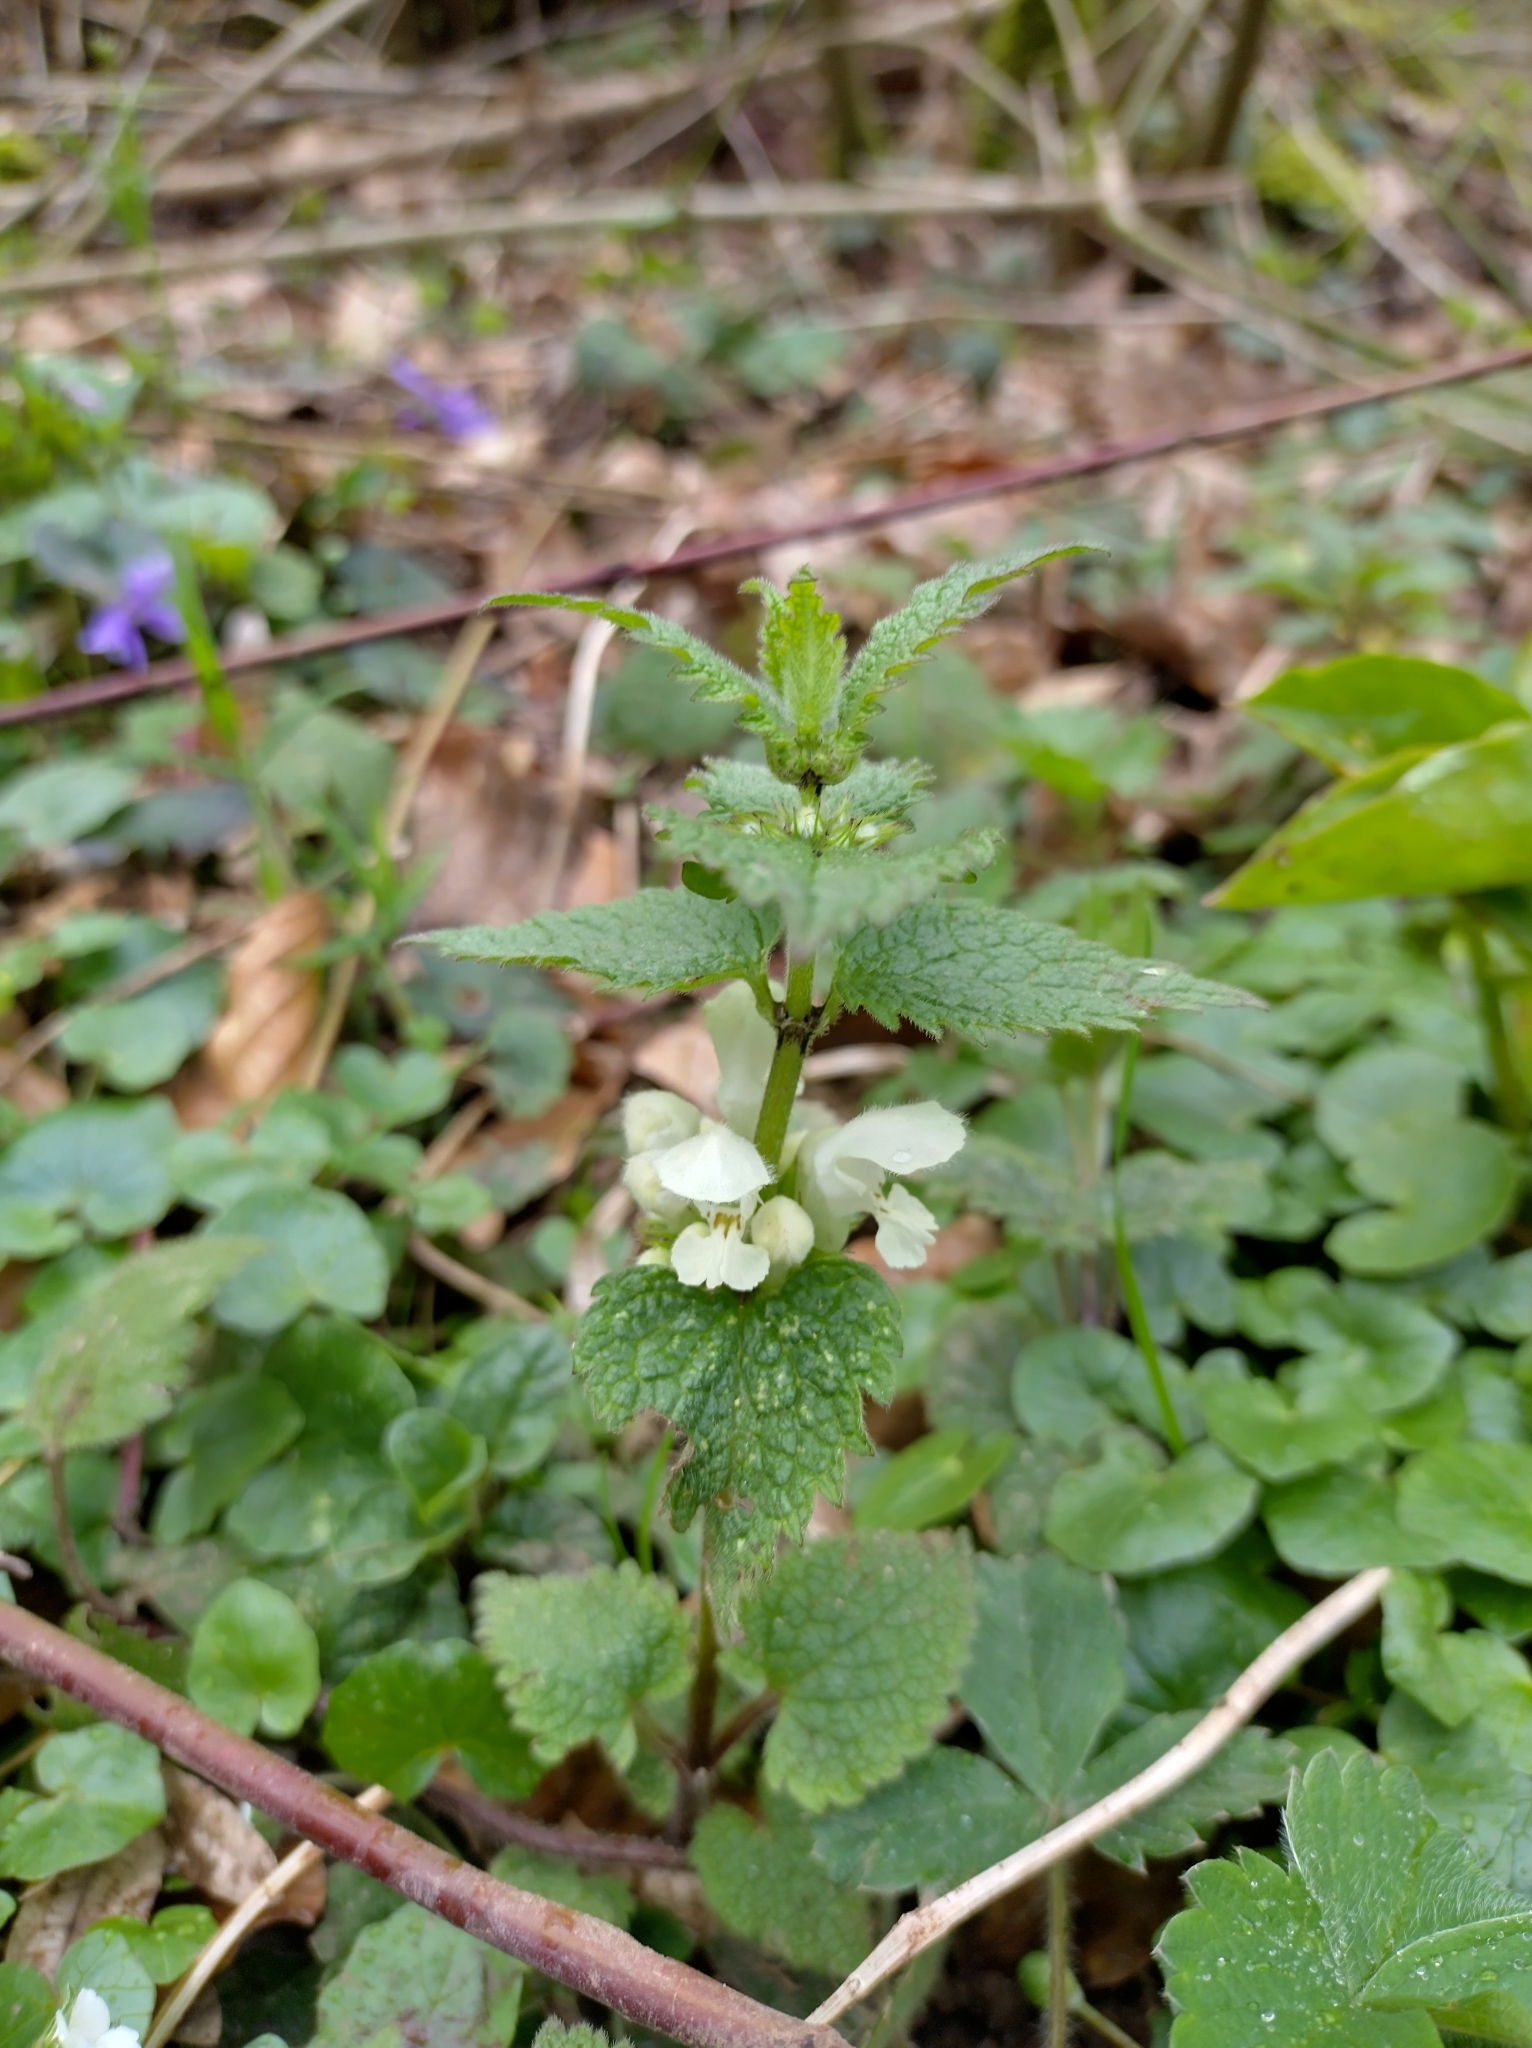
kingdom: Plantae
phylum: Tracheophyta
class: Magnoliopsida
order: Lamiales
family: Lamiaceae
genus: Lamium
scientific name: Lamium album
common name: White dead-nettle
